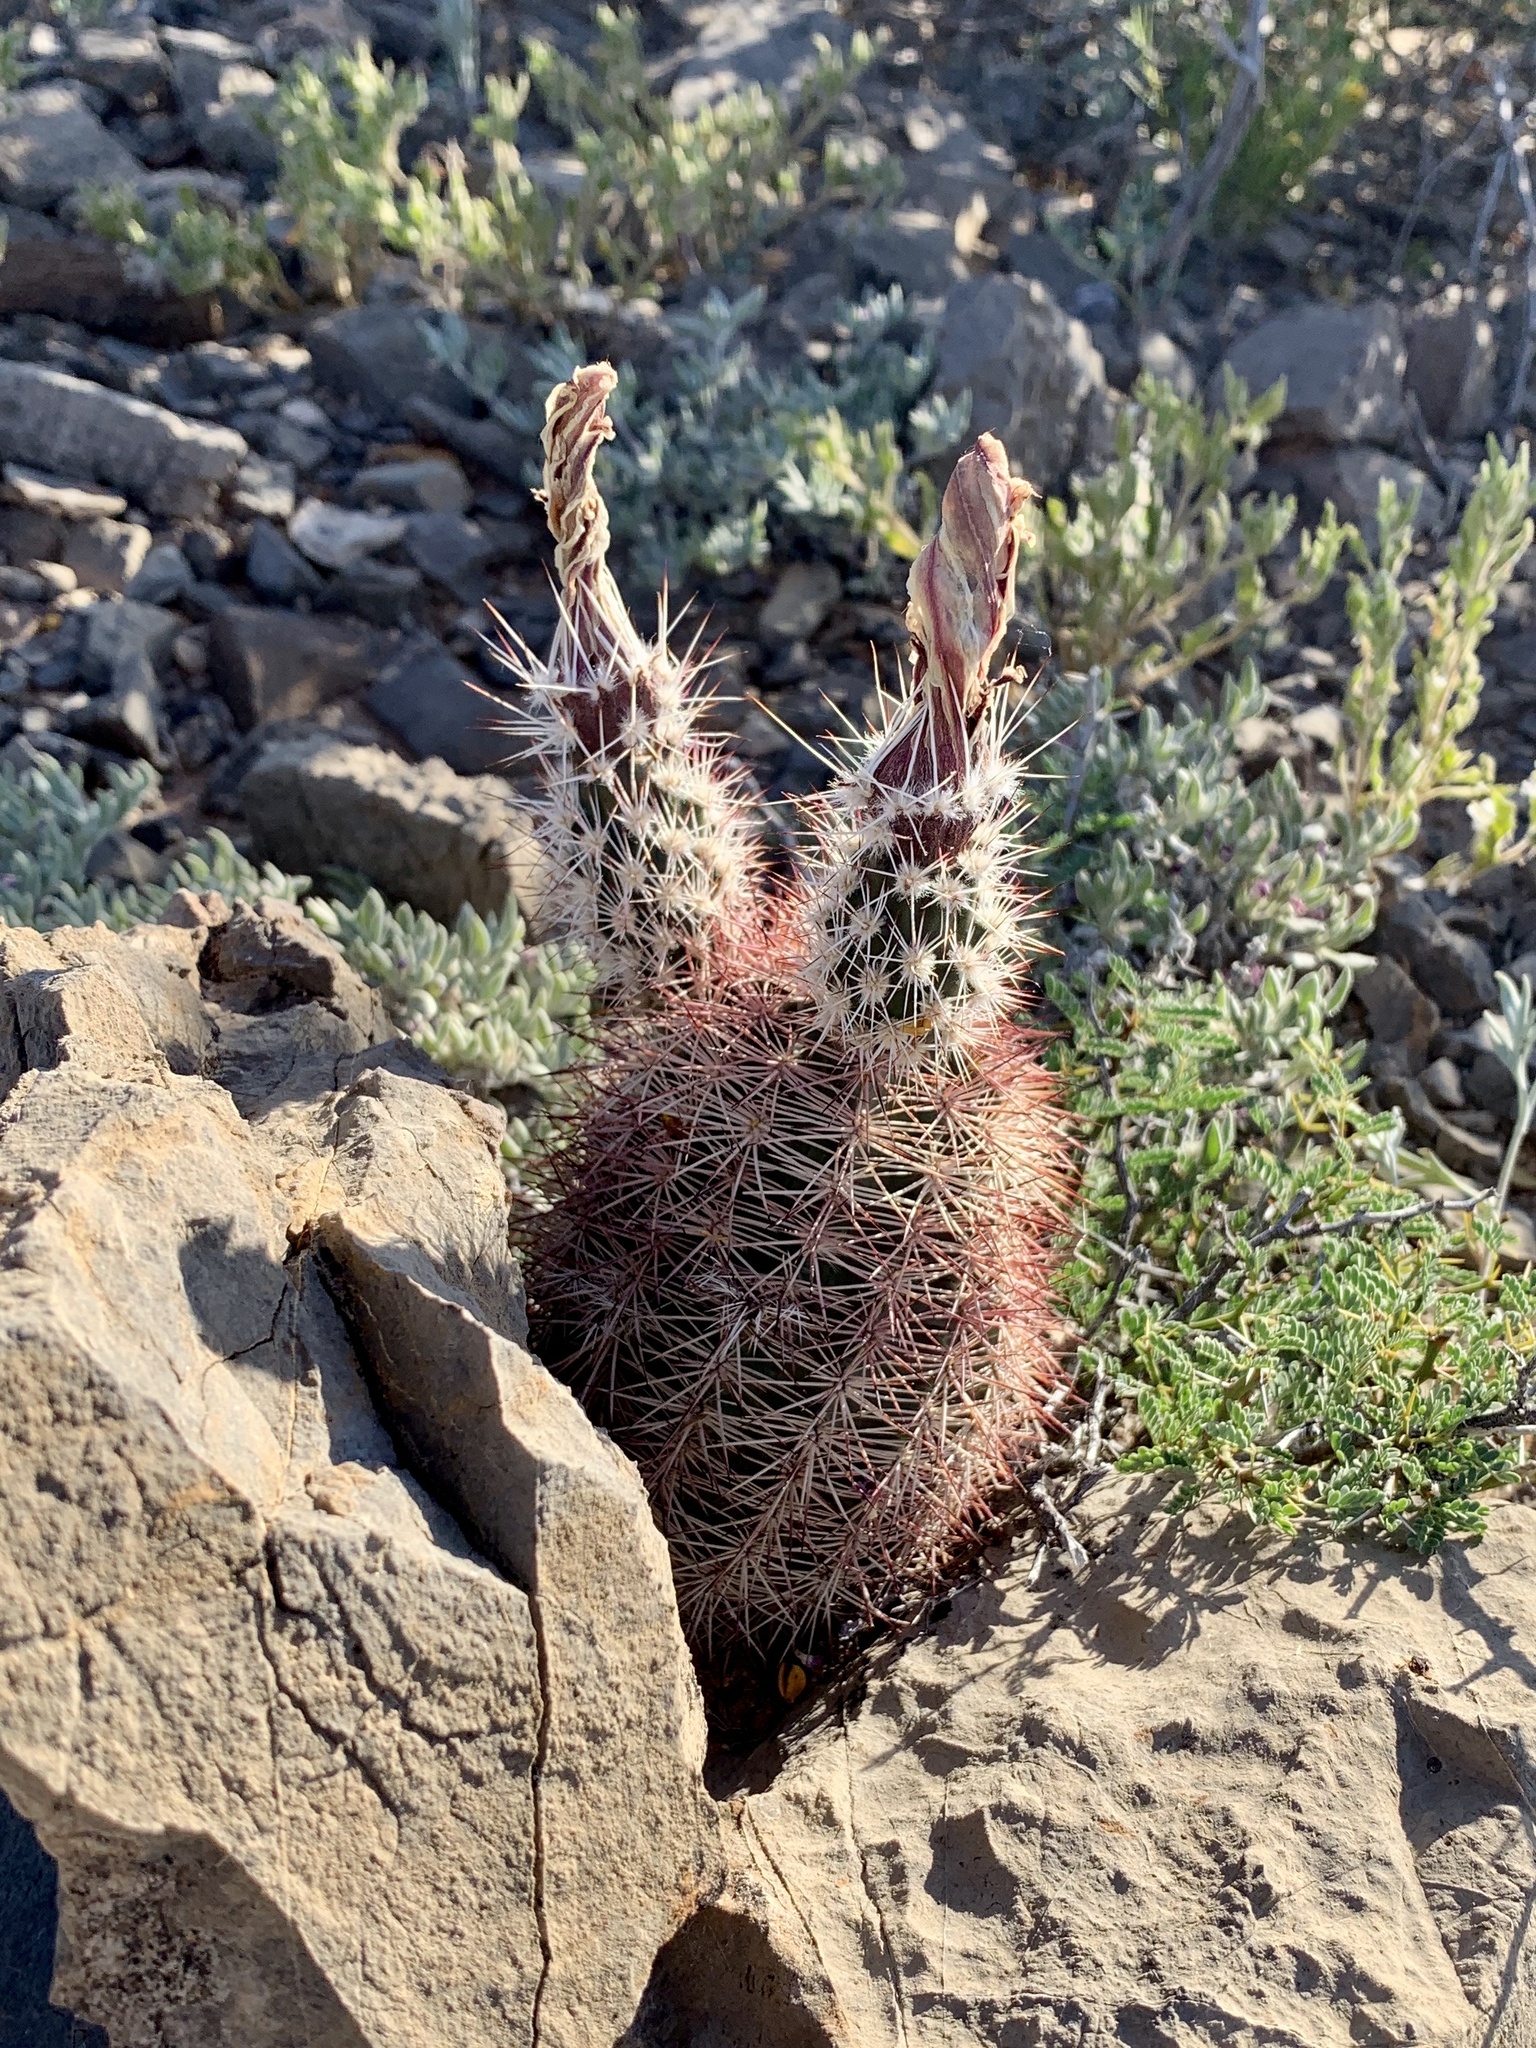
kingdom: Plantae
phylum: Tracheophyta
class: Magnoliopsida
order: Caryophyllales
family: Cactaceae
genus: Echinocereus
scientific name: Echinocereus dasyacanthus
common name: Spiny hedgehog cactus
